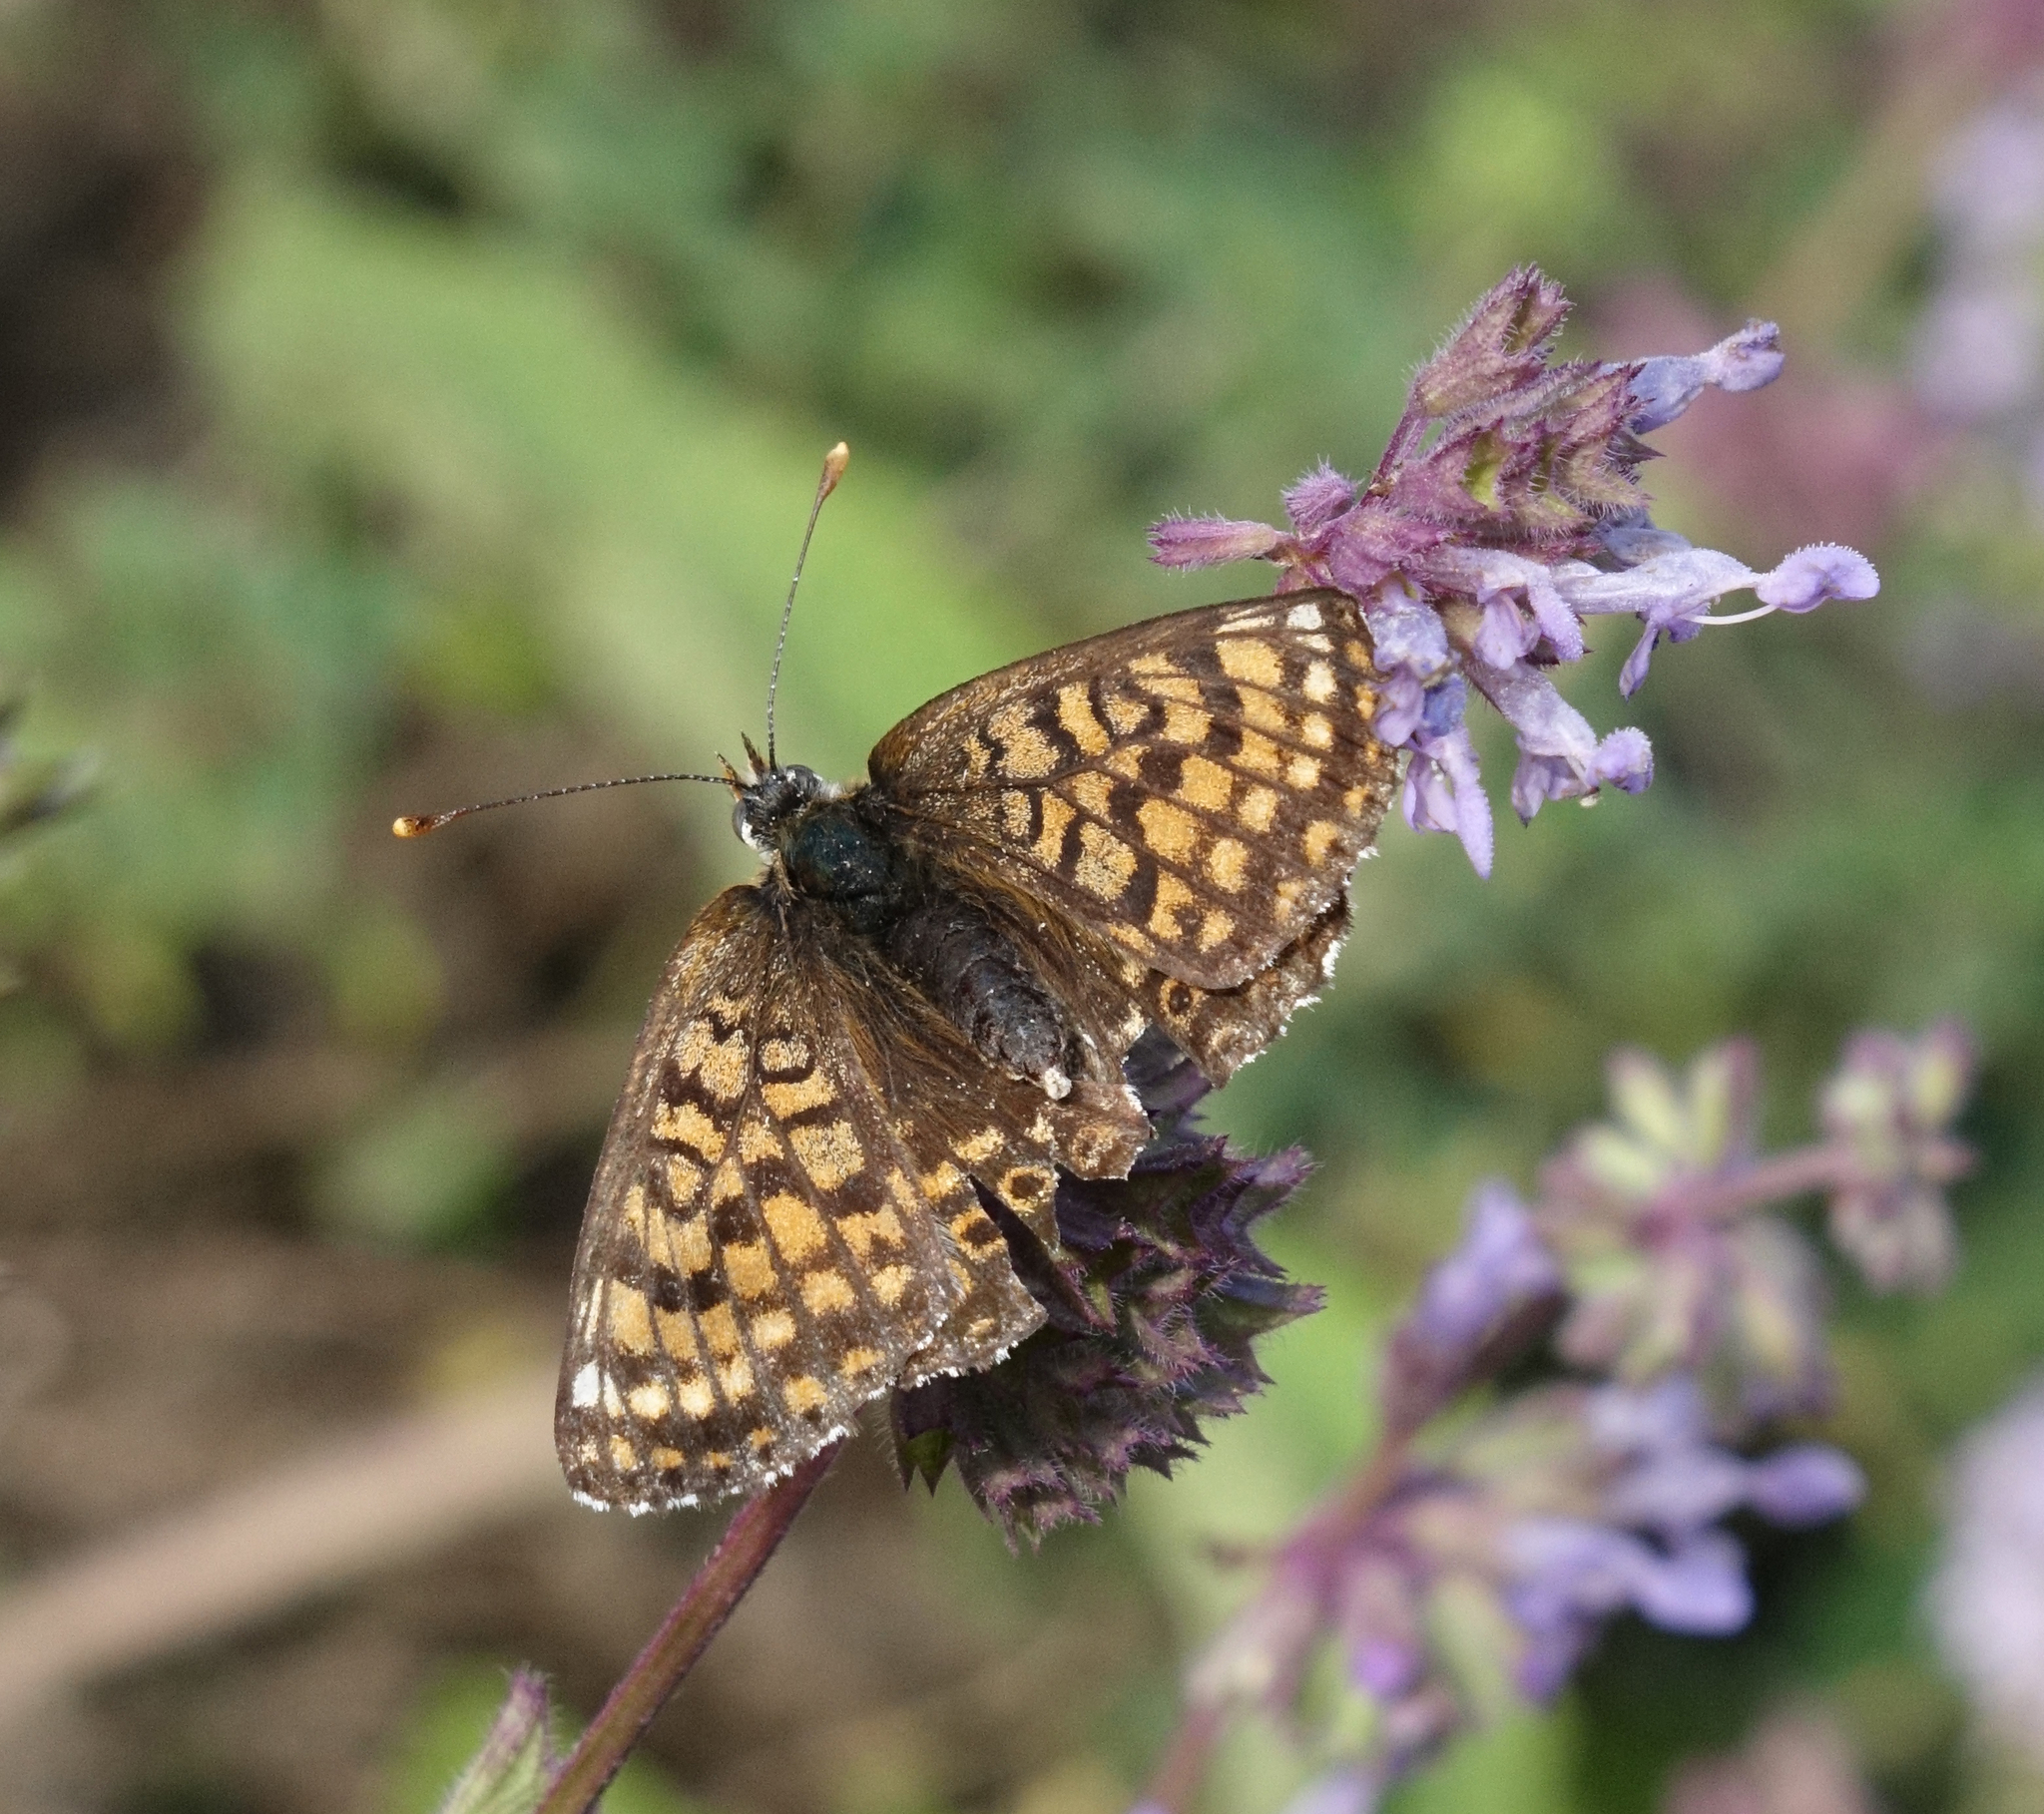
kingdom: Plantae
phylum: Tracheophyta
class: Magnoliopsida
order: Lamiales
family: Lamiaceae
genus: Salvia
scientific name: Salvia verticillata
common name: Whorled clary
